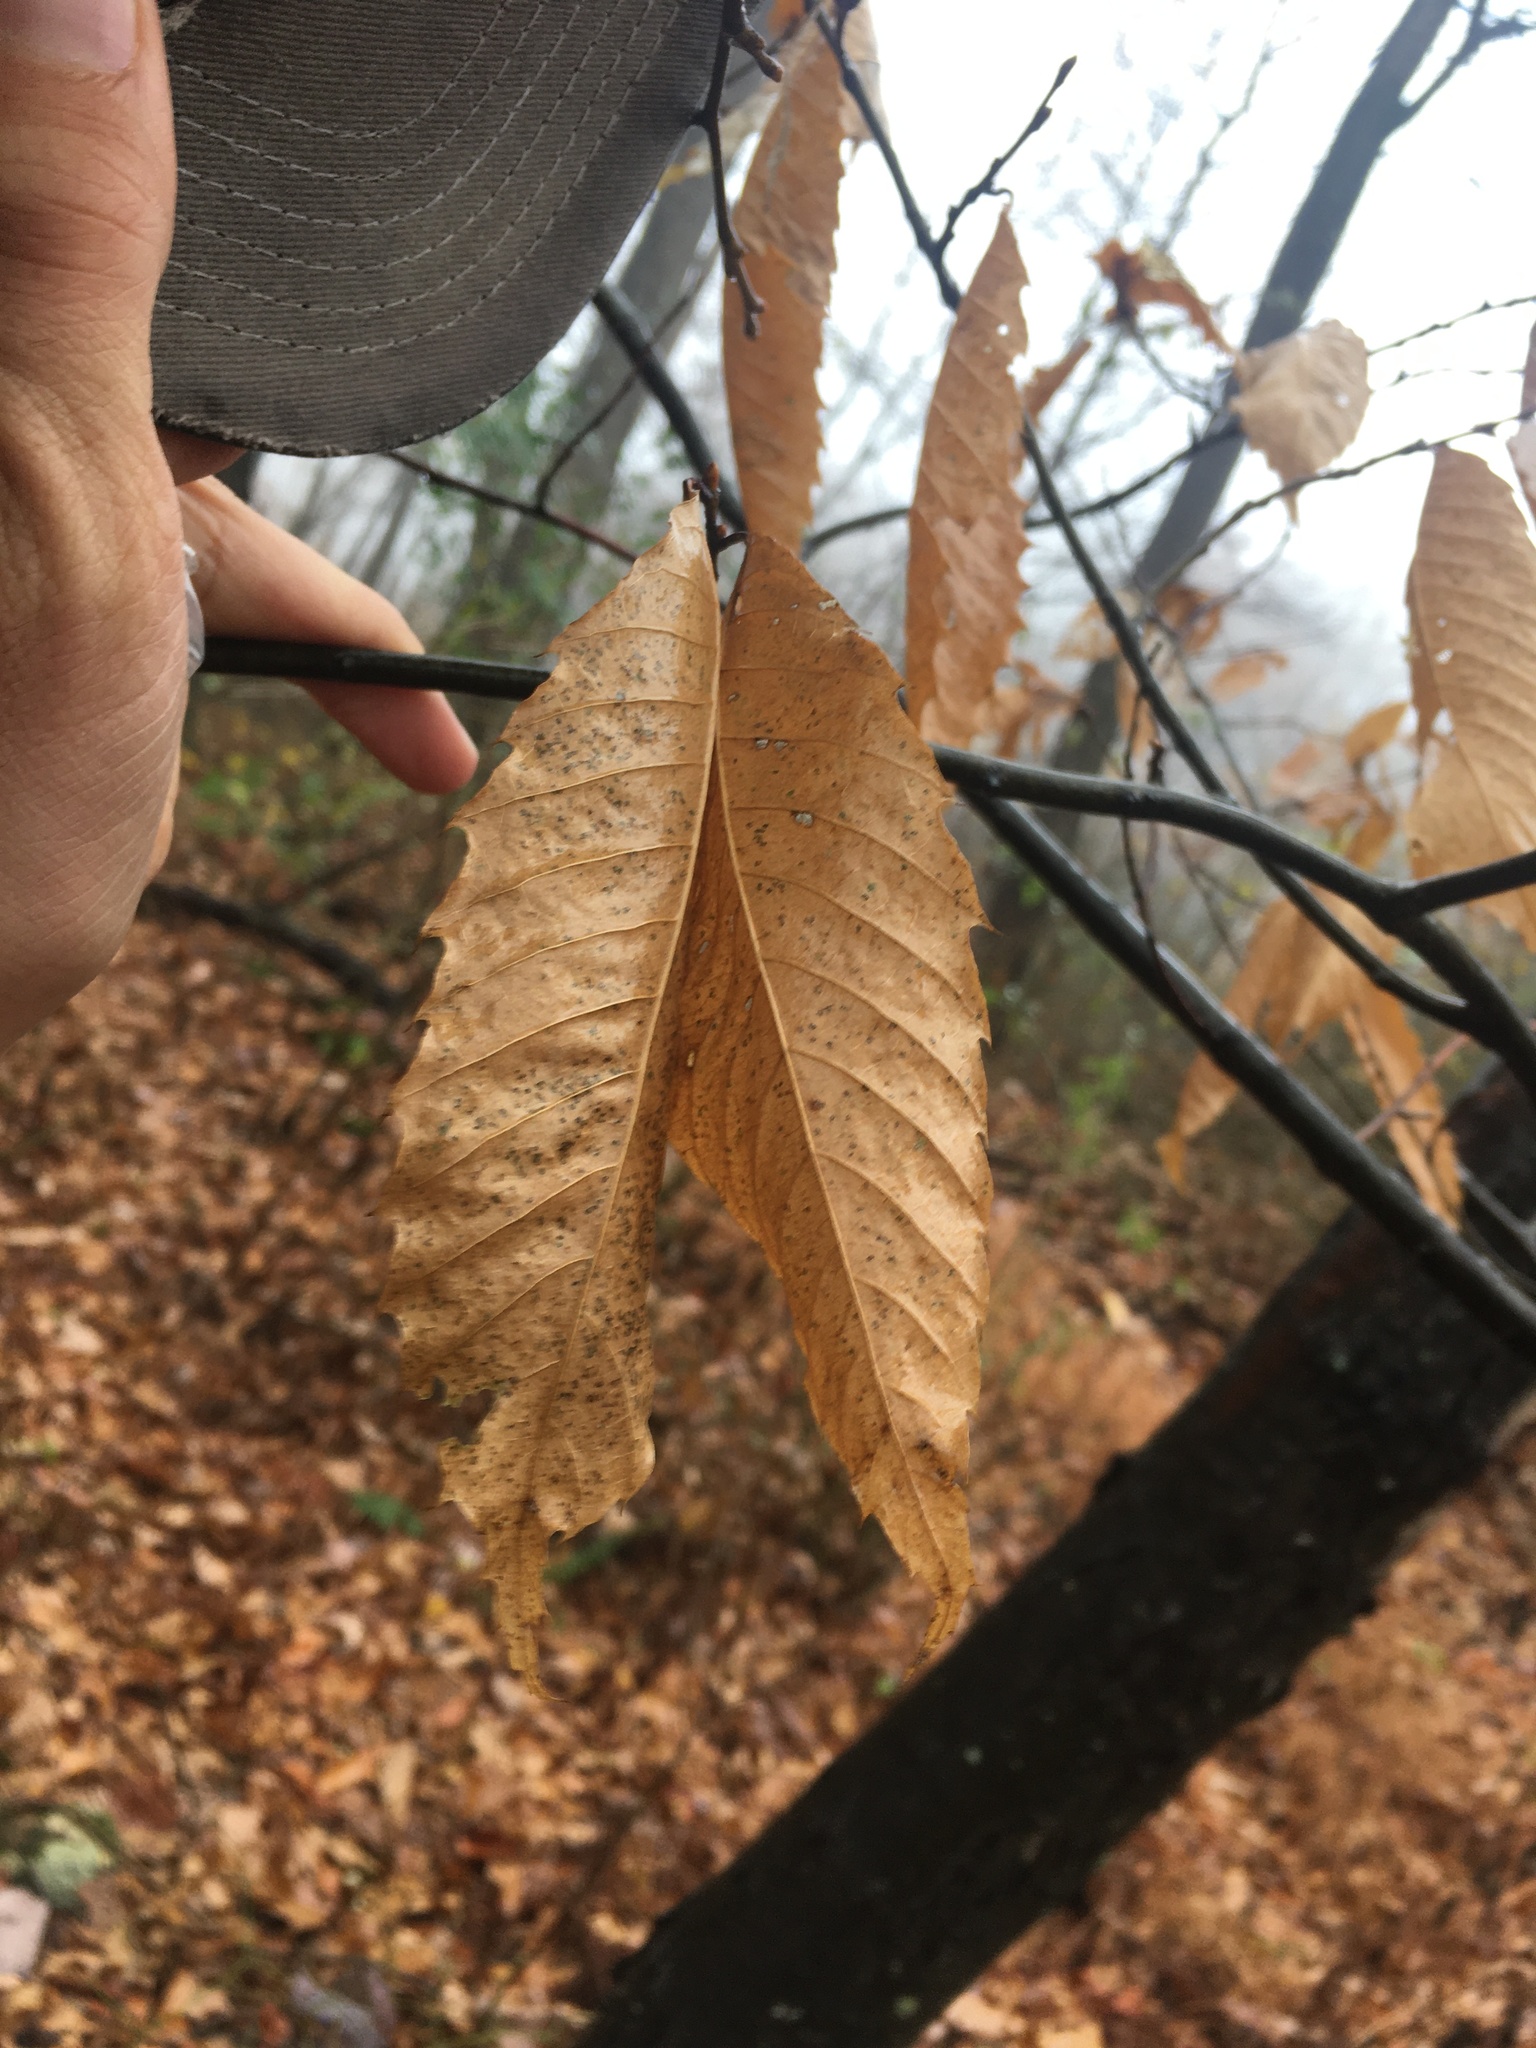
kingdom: Plantae
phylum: Tracheophyta
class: Magnoliopsida
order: Fagales
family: Fagaceae
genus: Castanea
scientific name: Castanea dentata
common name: American chestnut
